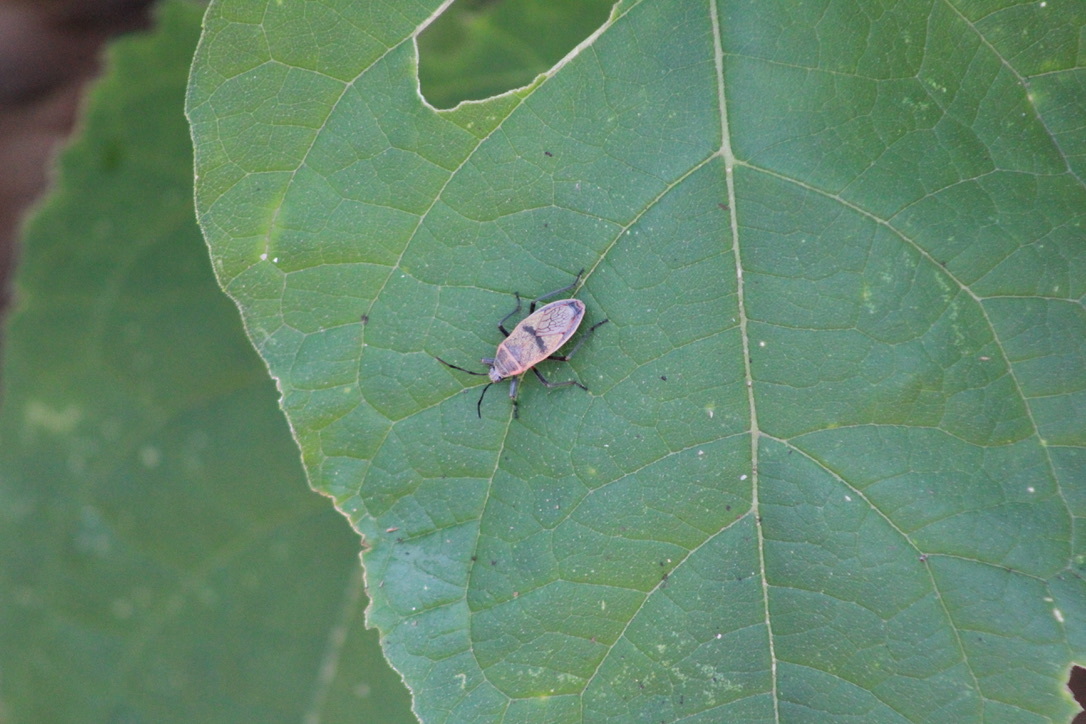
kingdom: Animalia
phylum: Arthropoda
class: Insecta
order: Hemiptera
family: Largidae
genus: Largus
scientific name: Largus maculatus
